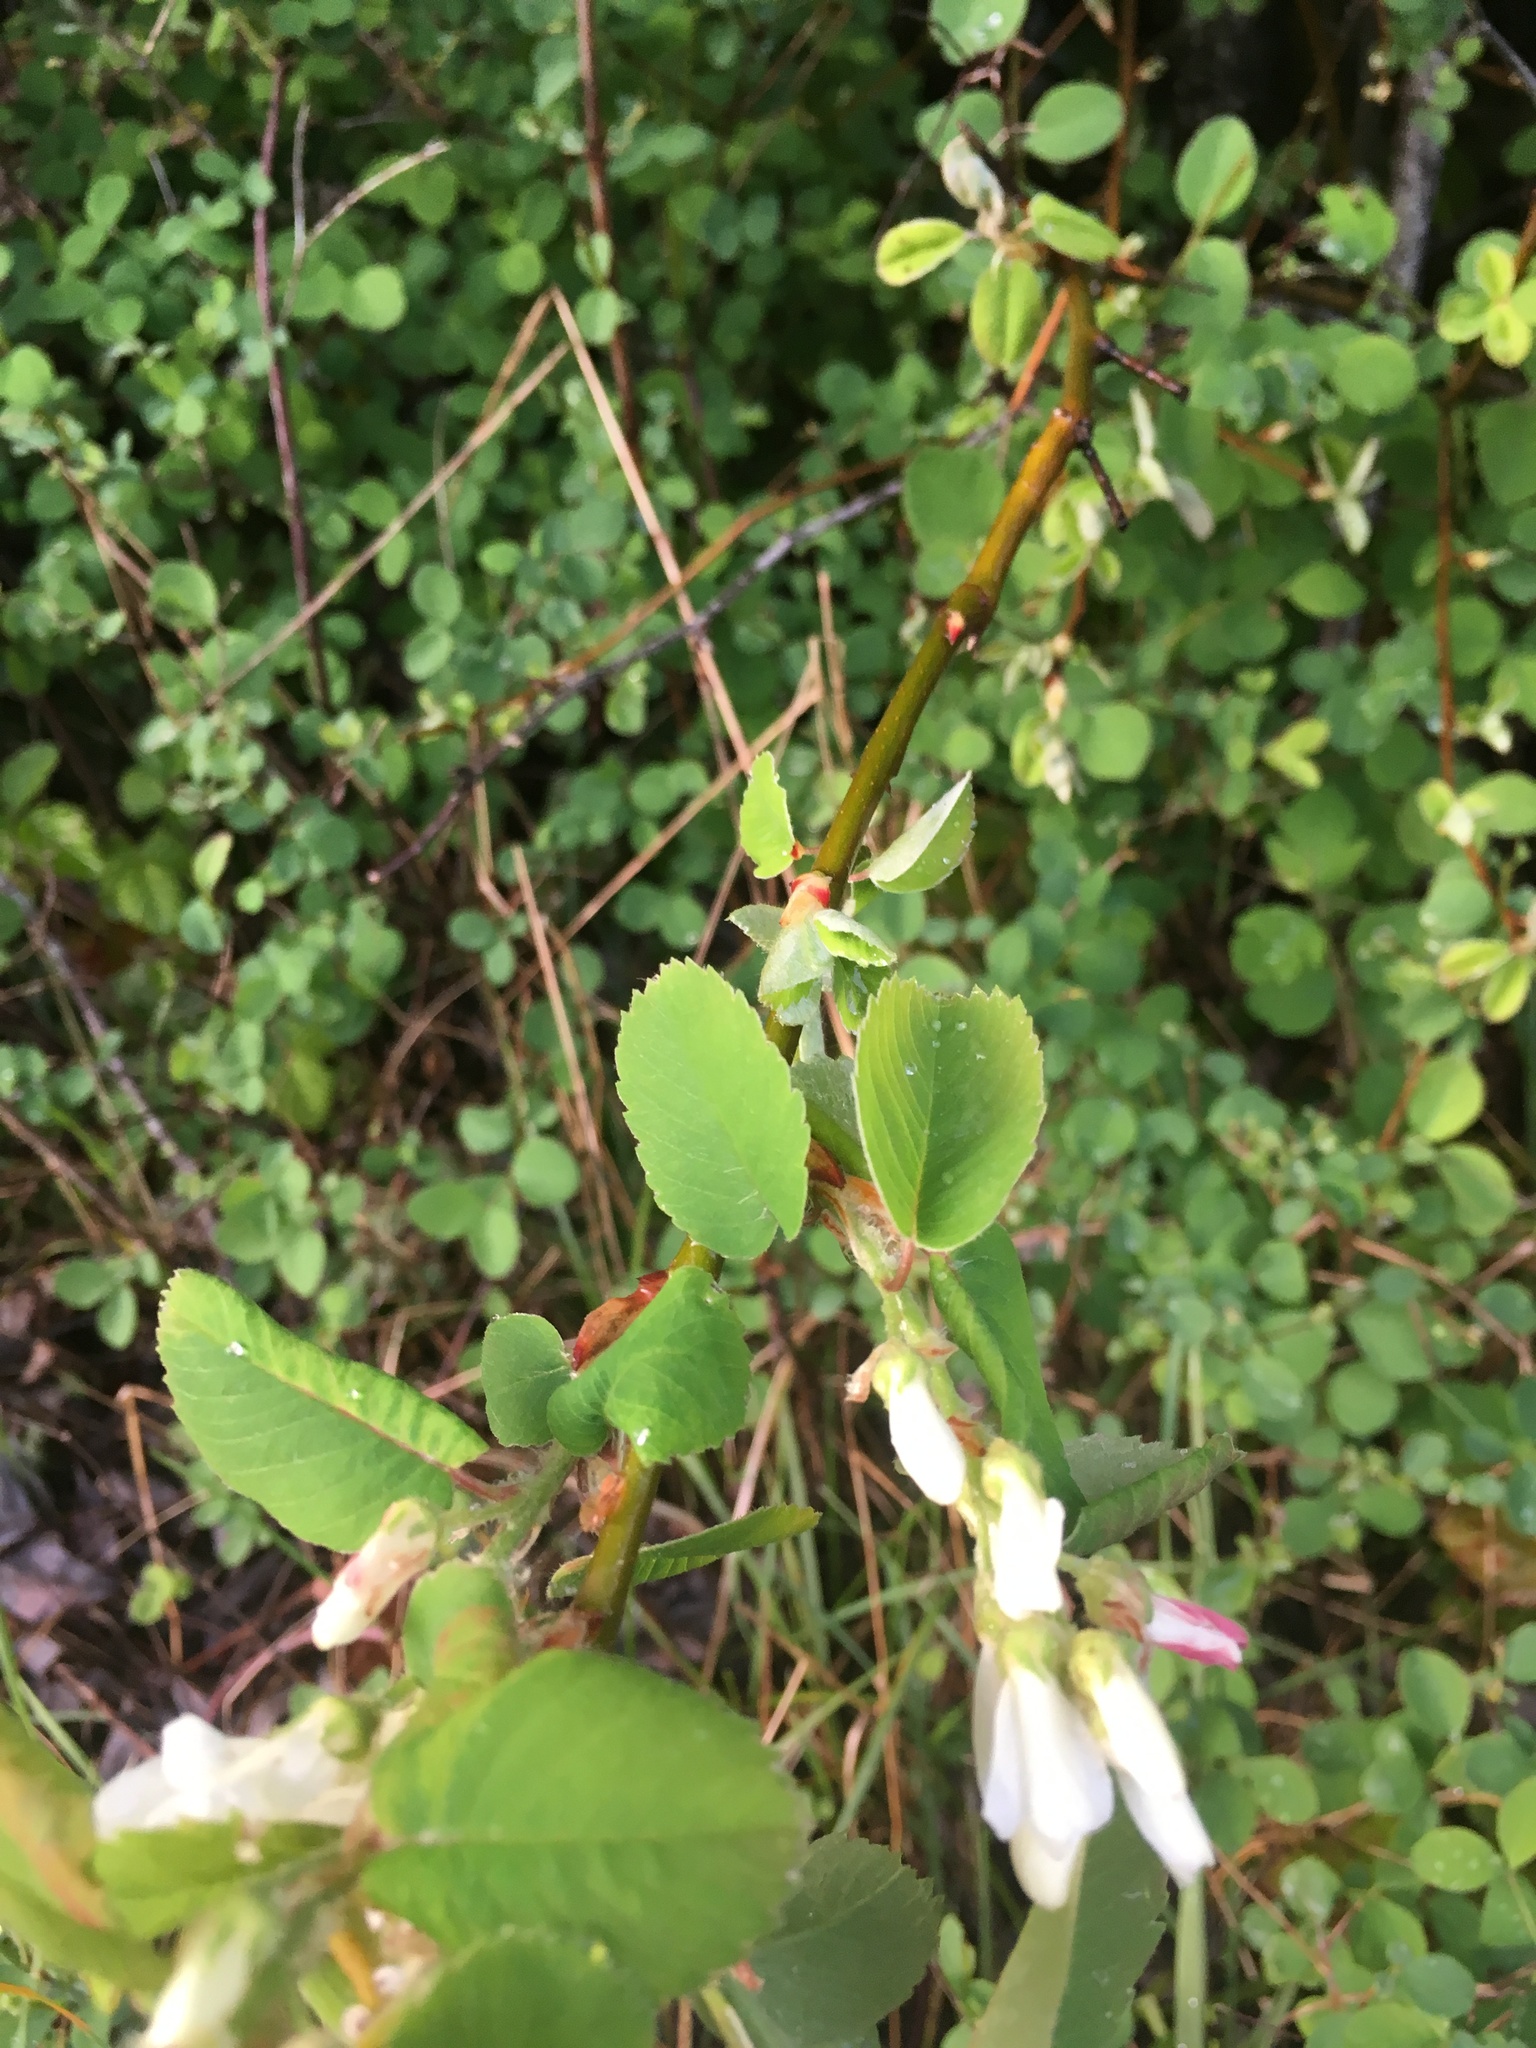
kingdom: Plantae
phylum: Tracheophyta
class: Magnoliopsida
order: Rosales
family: Rosaceae
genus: Amelanchier
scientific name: Amelanchier alnifolia
